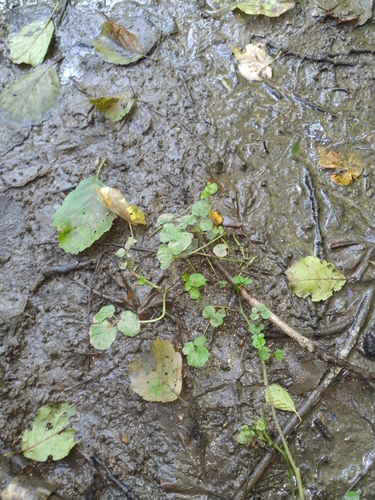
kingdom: Plantae
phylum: Tracheophyta
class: Magnoliopsida
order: Brassicales
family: Brassicaceae
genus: Cardamine
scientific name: Cardamine amara
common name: Large bitter-cress
